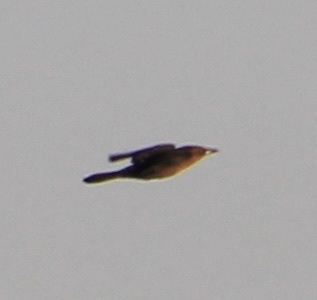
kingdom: Animalia
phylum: Chordata
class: Aves
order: Passeriformes
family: Icteridae
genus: Quiscalus
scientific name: Quiscalus major
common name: Boat-tailed grackle
